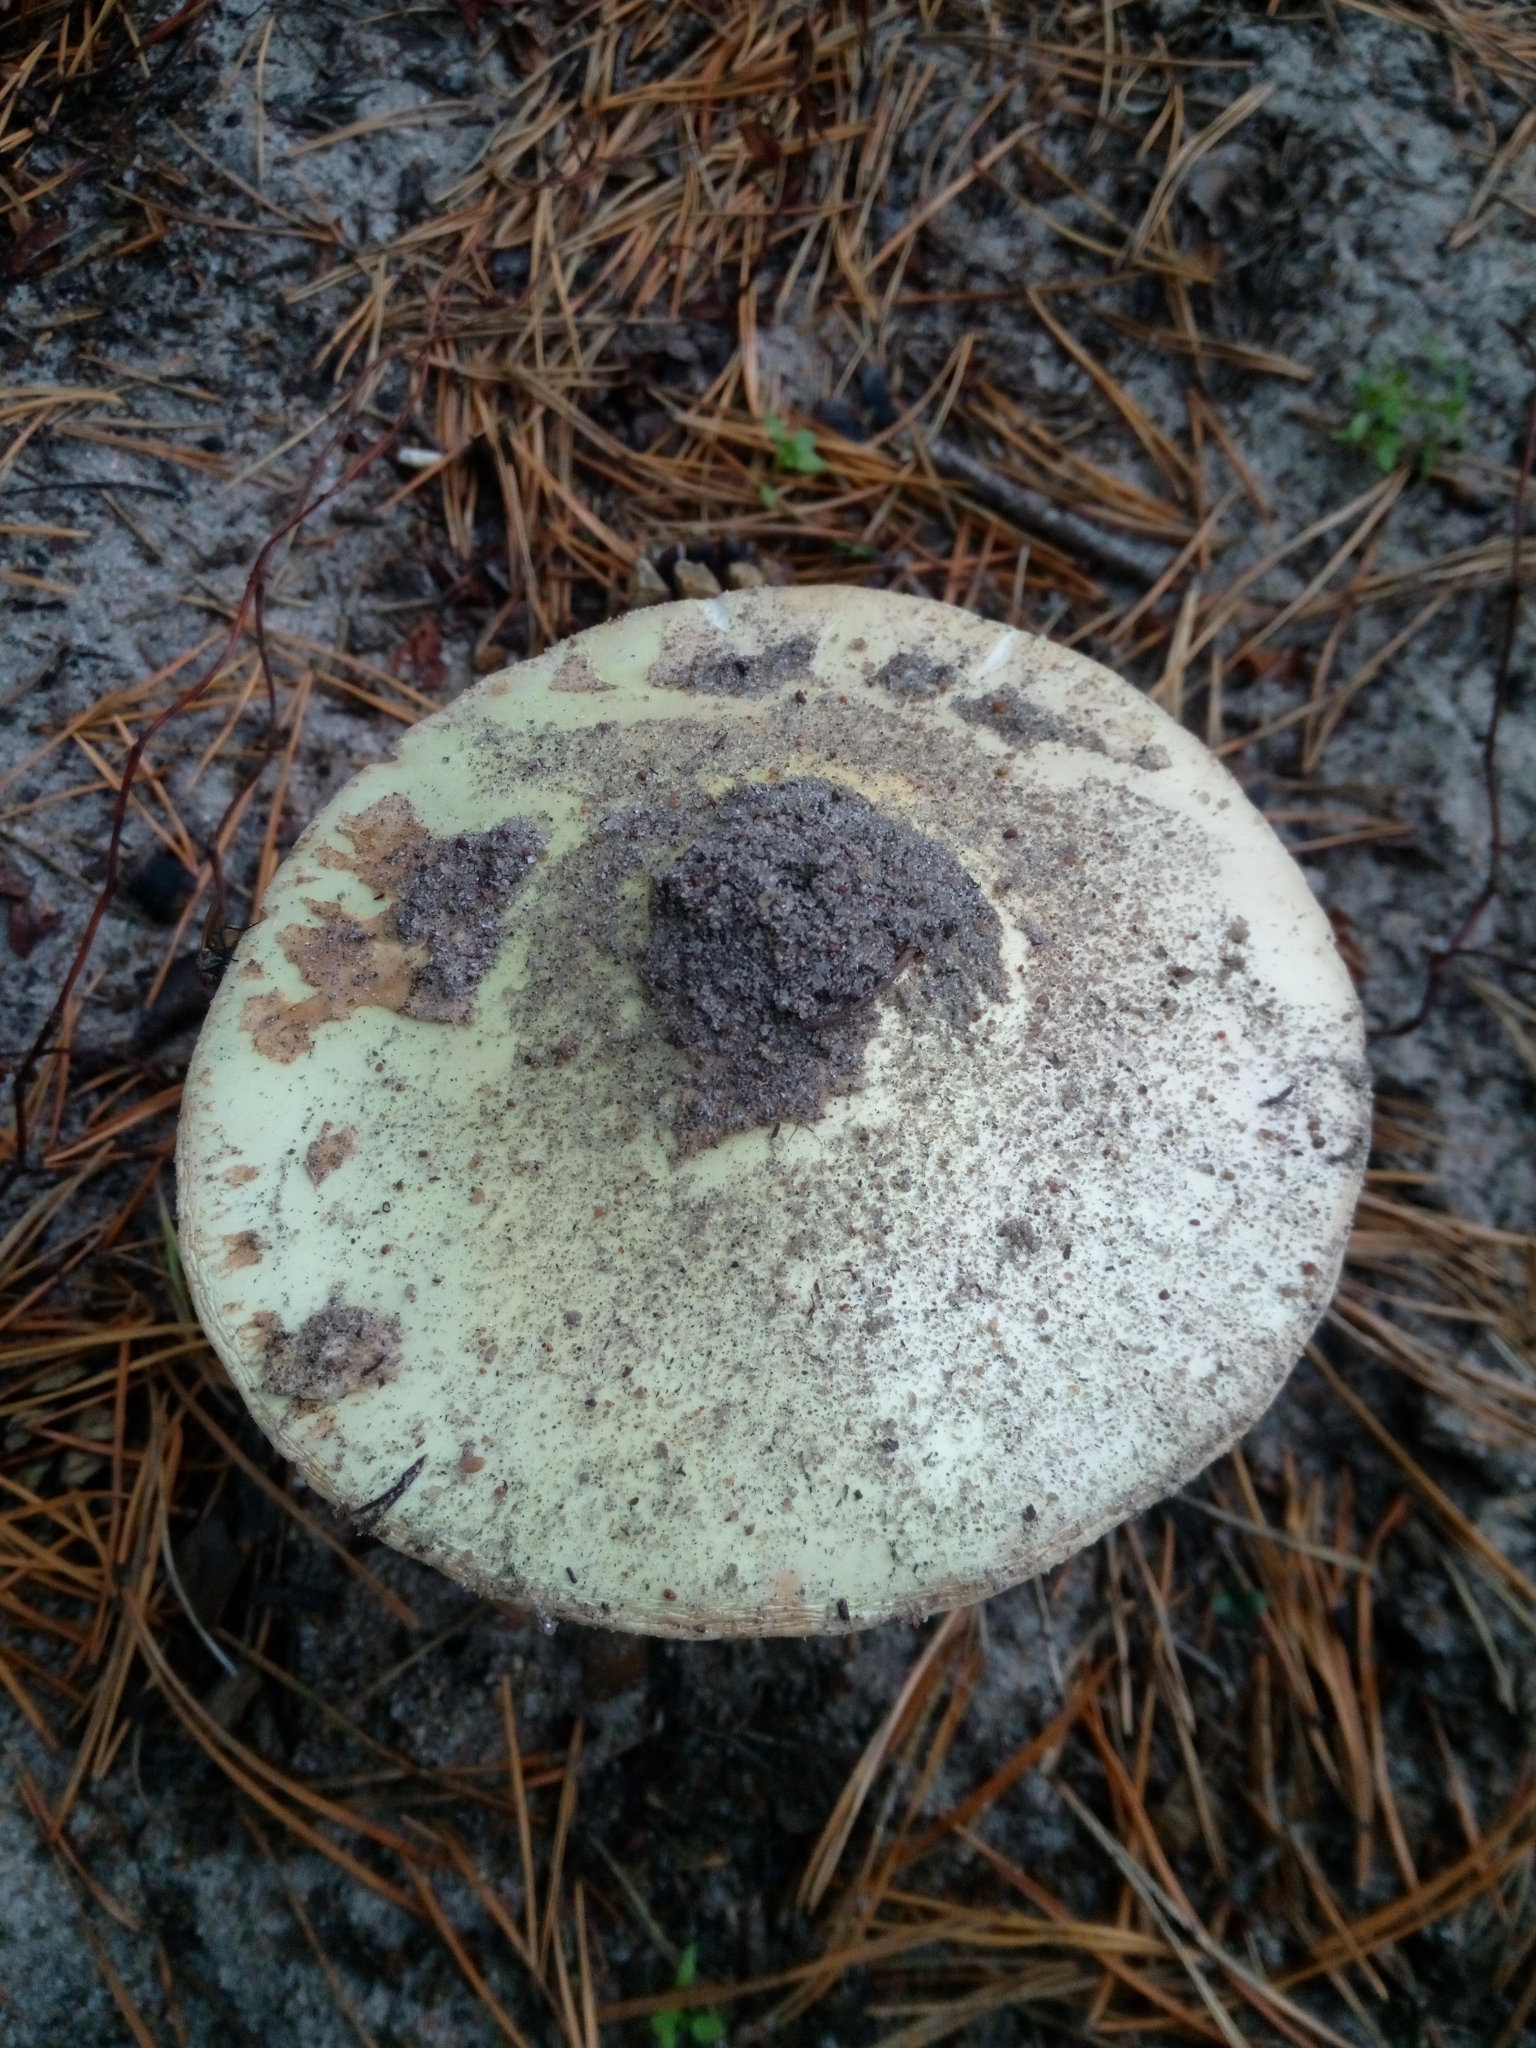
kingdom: Fungi
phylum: Basidiomycota
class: Agaricomycetes
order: Agaricales
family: Amanitaceae
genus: Amanita
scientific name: Amanita citrina
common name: False death-cap
